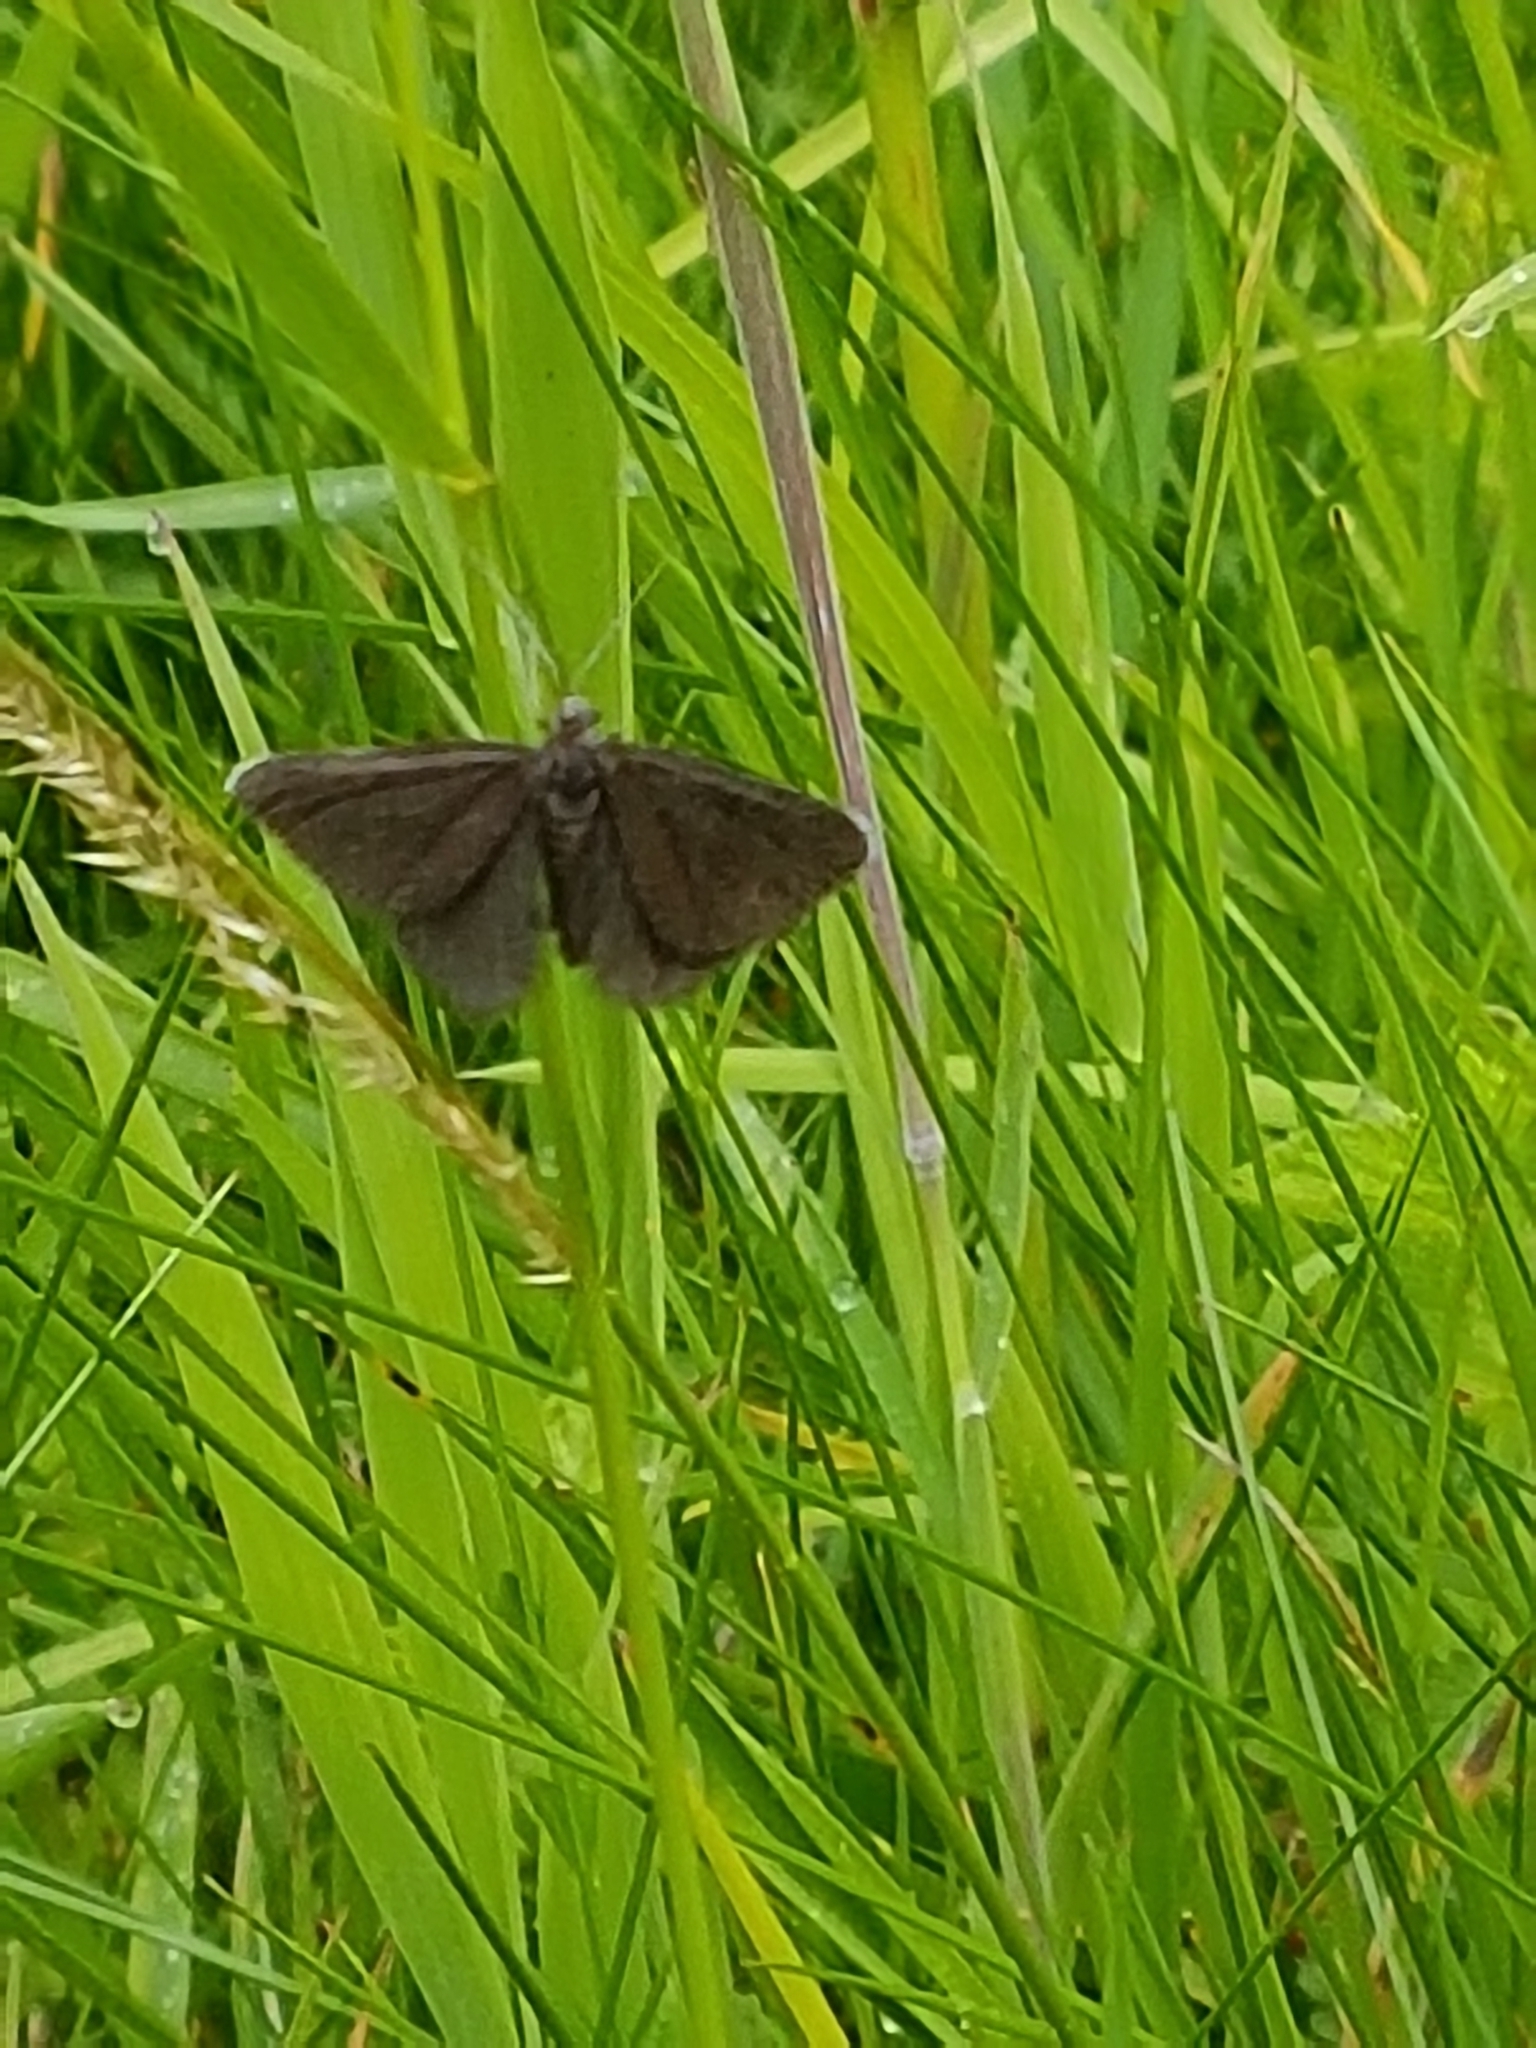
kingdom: Animalia
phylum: Arthropoda
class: Insecta
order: Lepidoptera
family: Geometridae
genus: Odezia
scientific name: Odezia atrata
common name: Chimney sweeper
